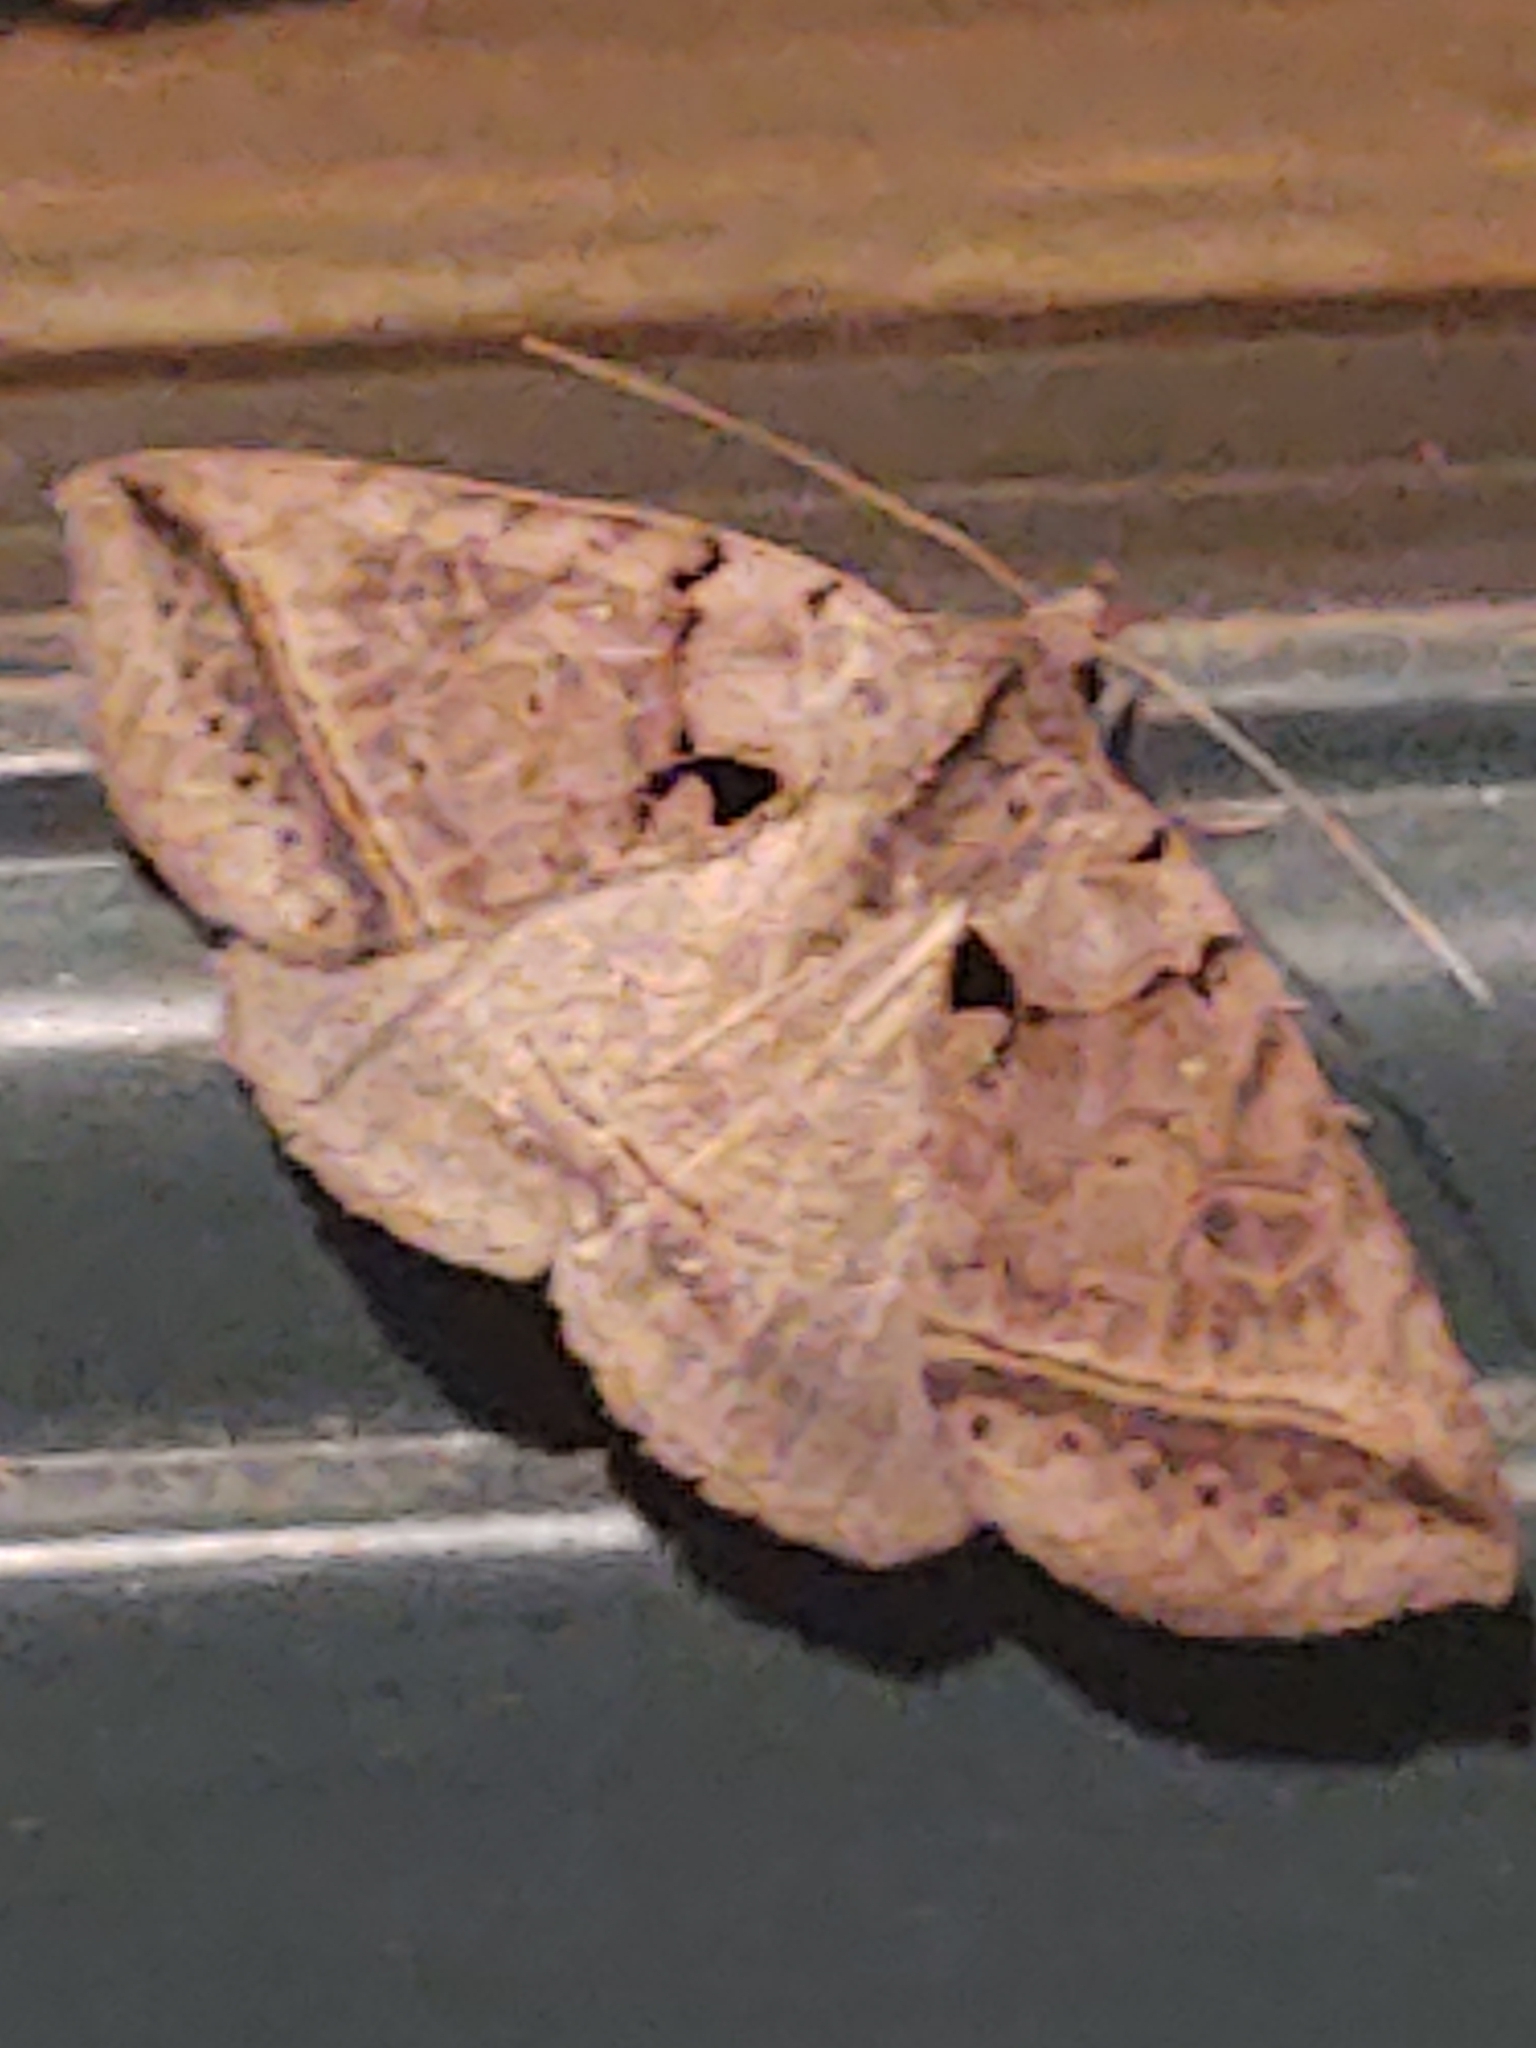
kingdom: Animalia
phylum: Arthropoda
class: Insecta
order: Lepidoptera
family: Erebidae
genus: Celiptera
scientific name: Celiptera frustulum
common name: Black bit moth
